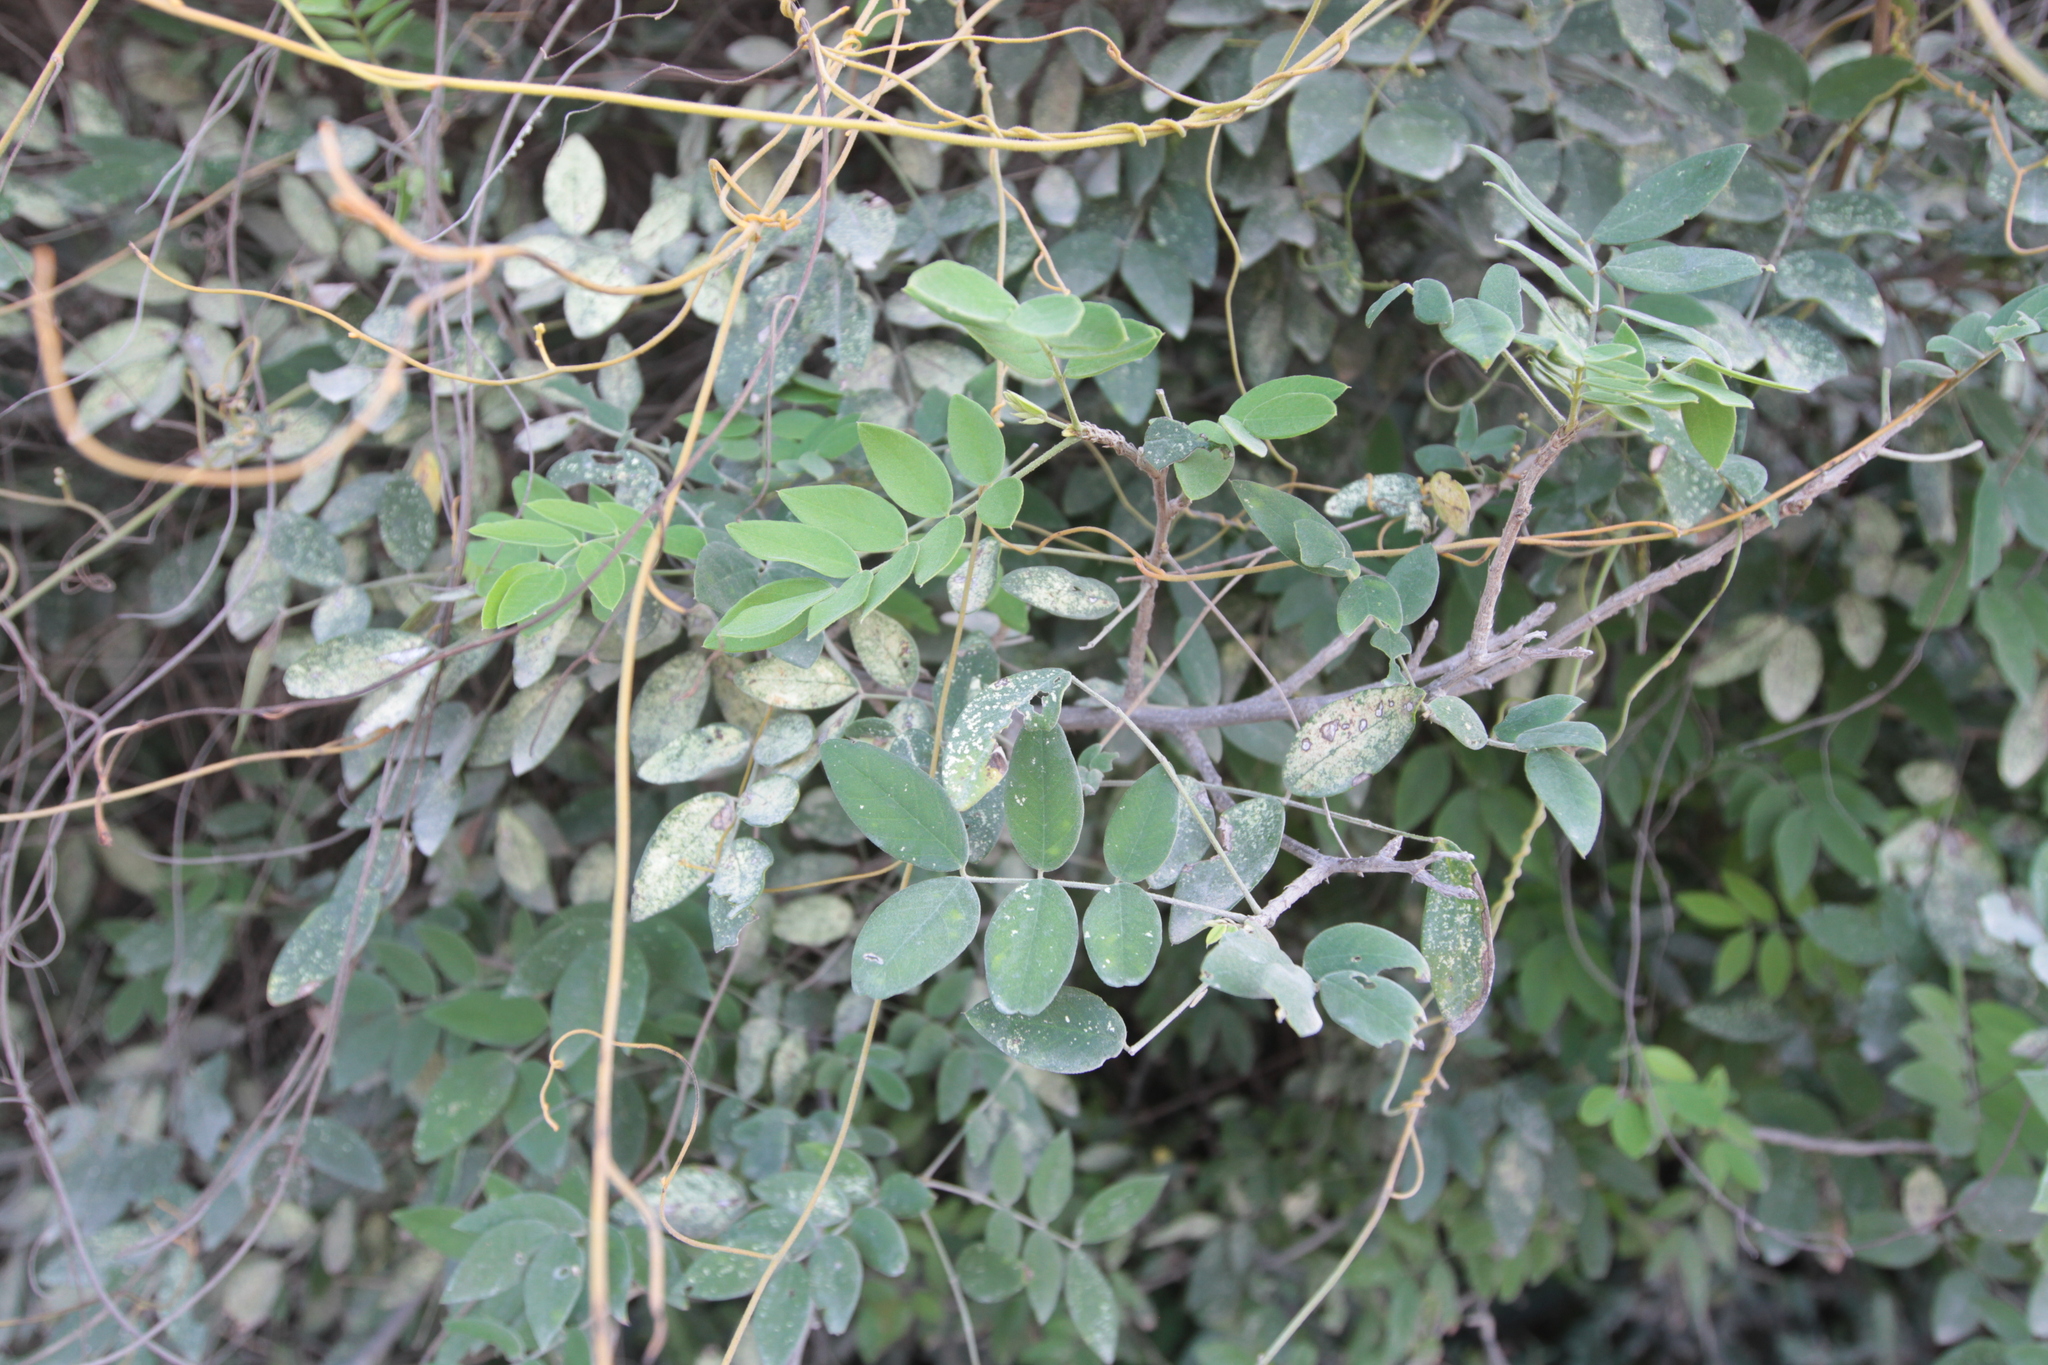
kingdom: Plantae
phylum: Tracheophyta
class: Magnoliopsida
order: Fabales
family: Fabaceae
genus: Senna
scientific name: Senna atomaria
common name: Flor de san jose
